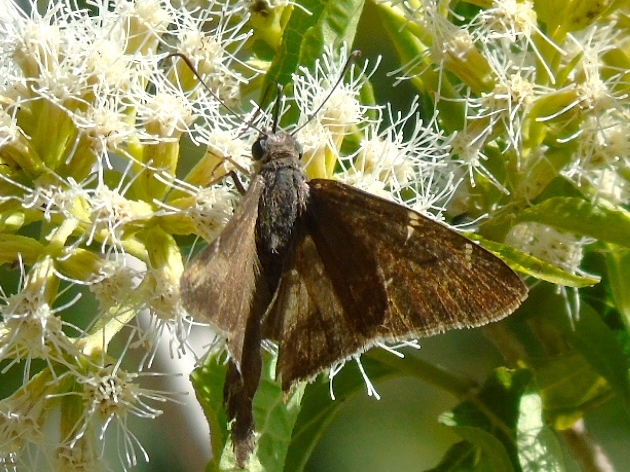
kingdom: Animalia
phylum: Arthropoda
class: Insecta
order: Lepidoptera
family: Hesperiidae
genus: Urbanus
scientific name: Urbanus simplicius
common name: Plain longtail
